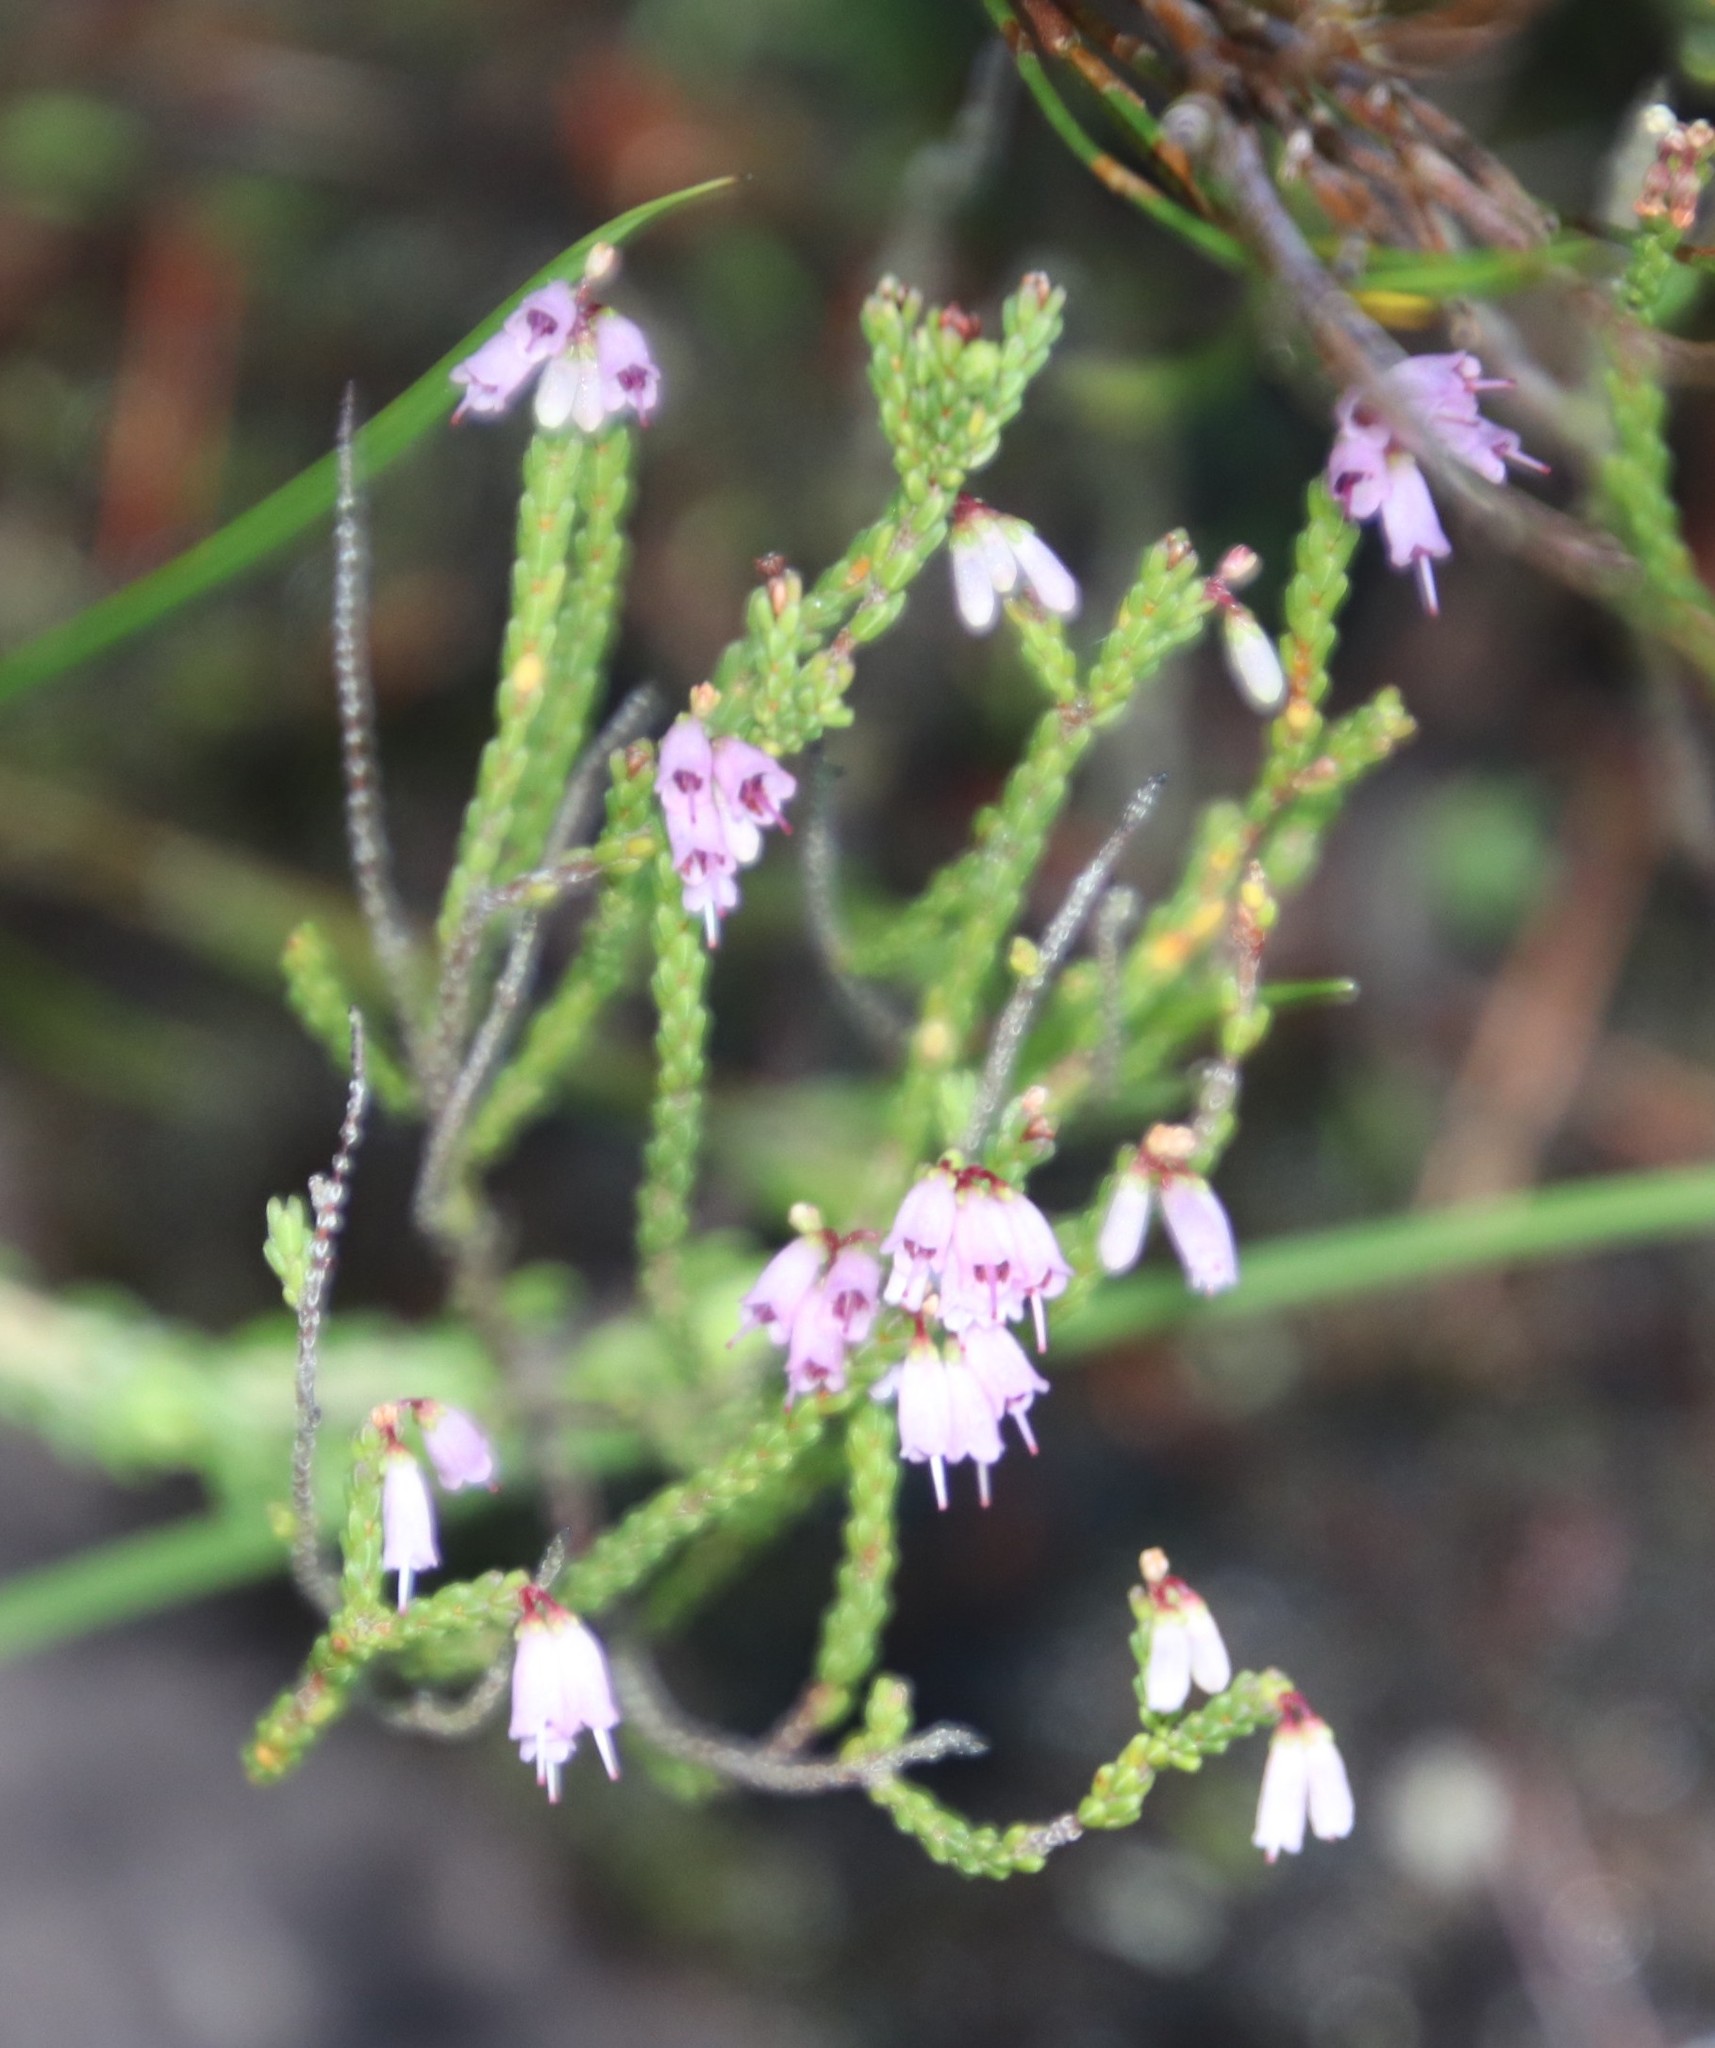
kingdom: Plantae
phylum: Tracheophyta
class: Magnoliopsida
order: Ericales
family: Ericaceae
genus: Erica
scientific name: Erica equisetifolia
